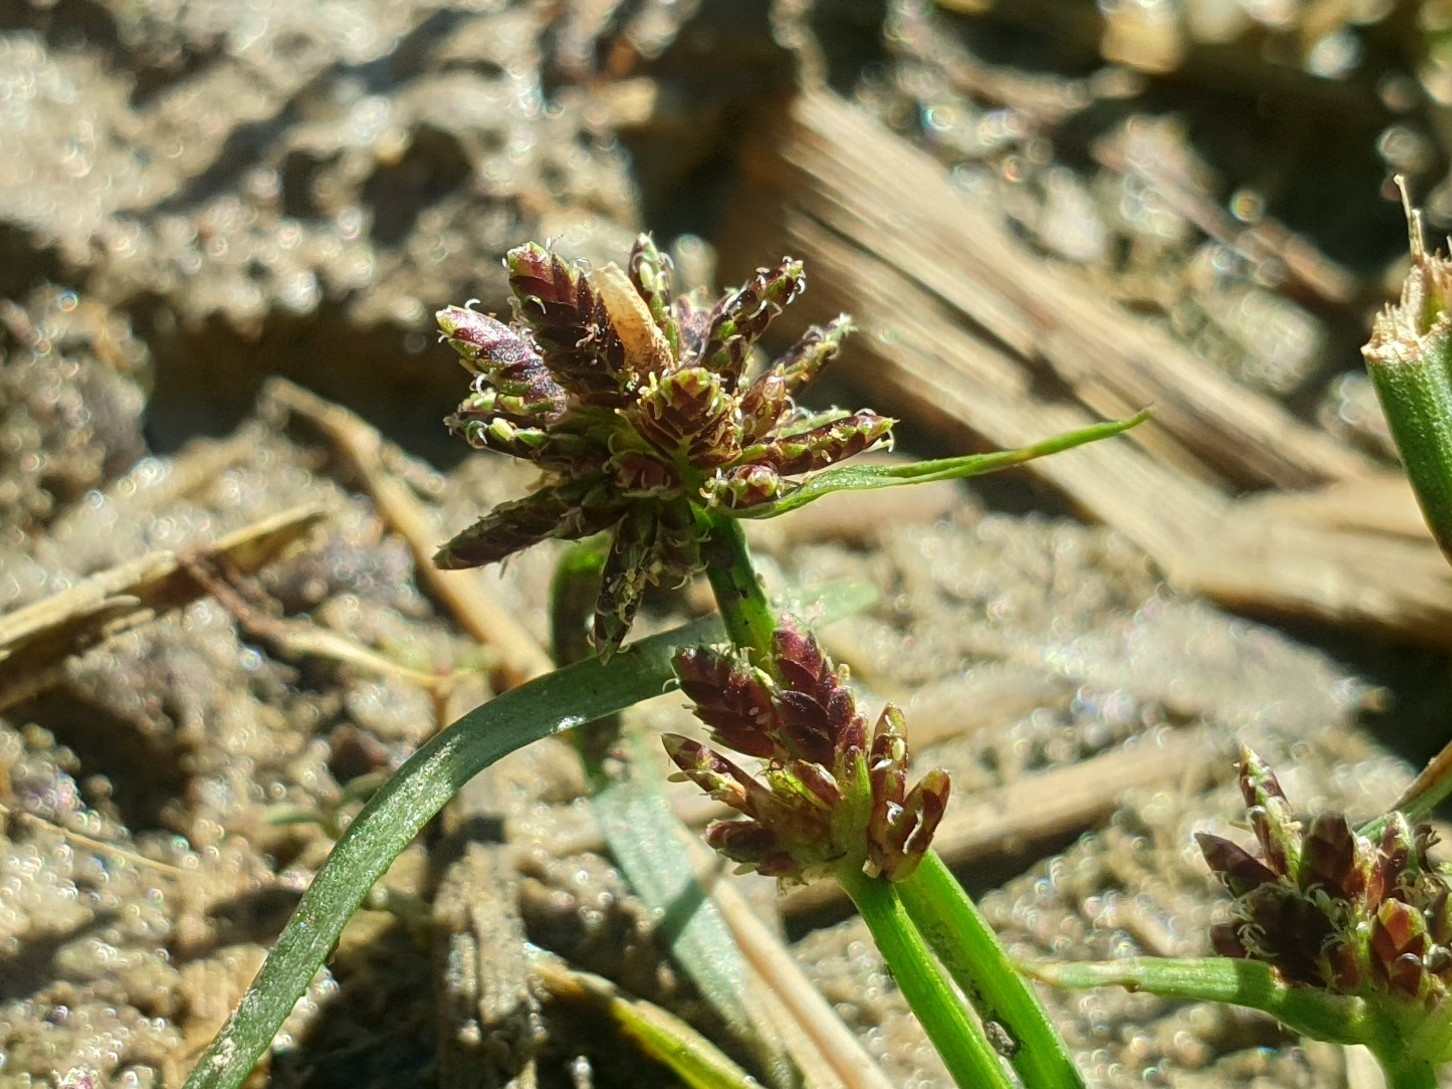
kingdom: Plantae
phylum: Tracheophyta
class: Liliopsida
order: Poales
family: Cyperaceae
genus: Cyperus
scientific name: Cyperus fuscus
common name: Brown galingale
